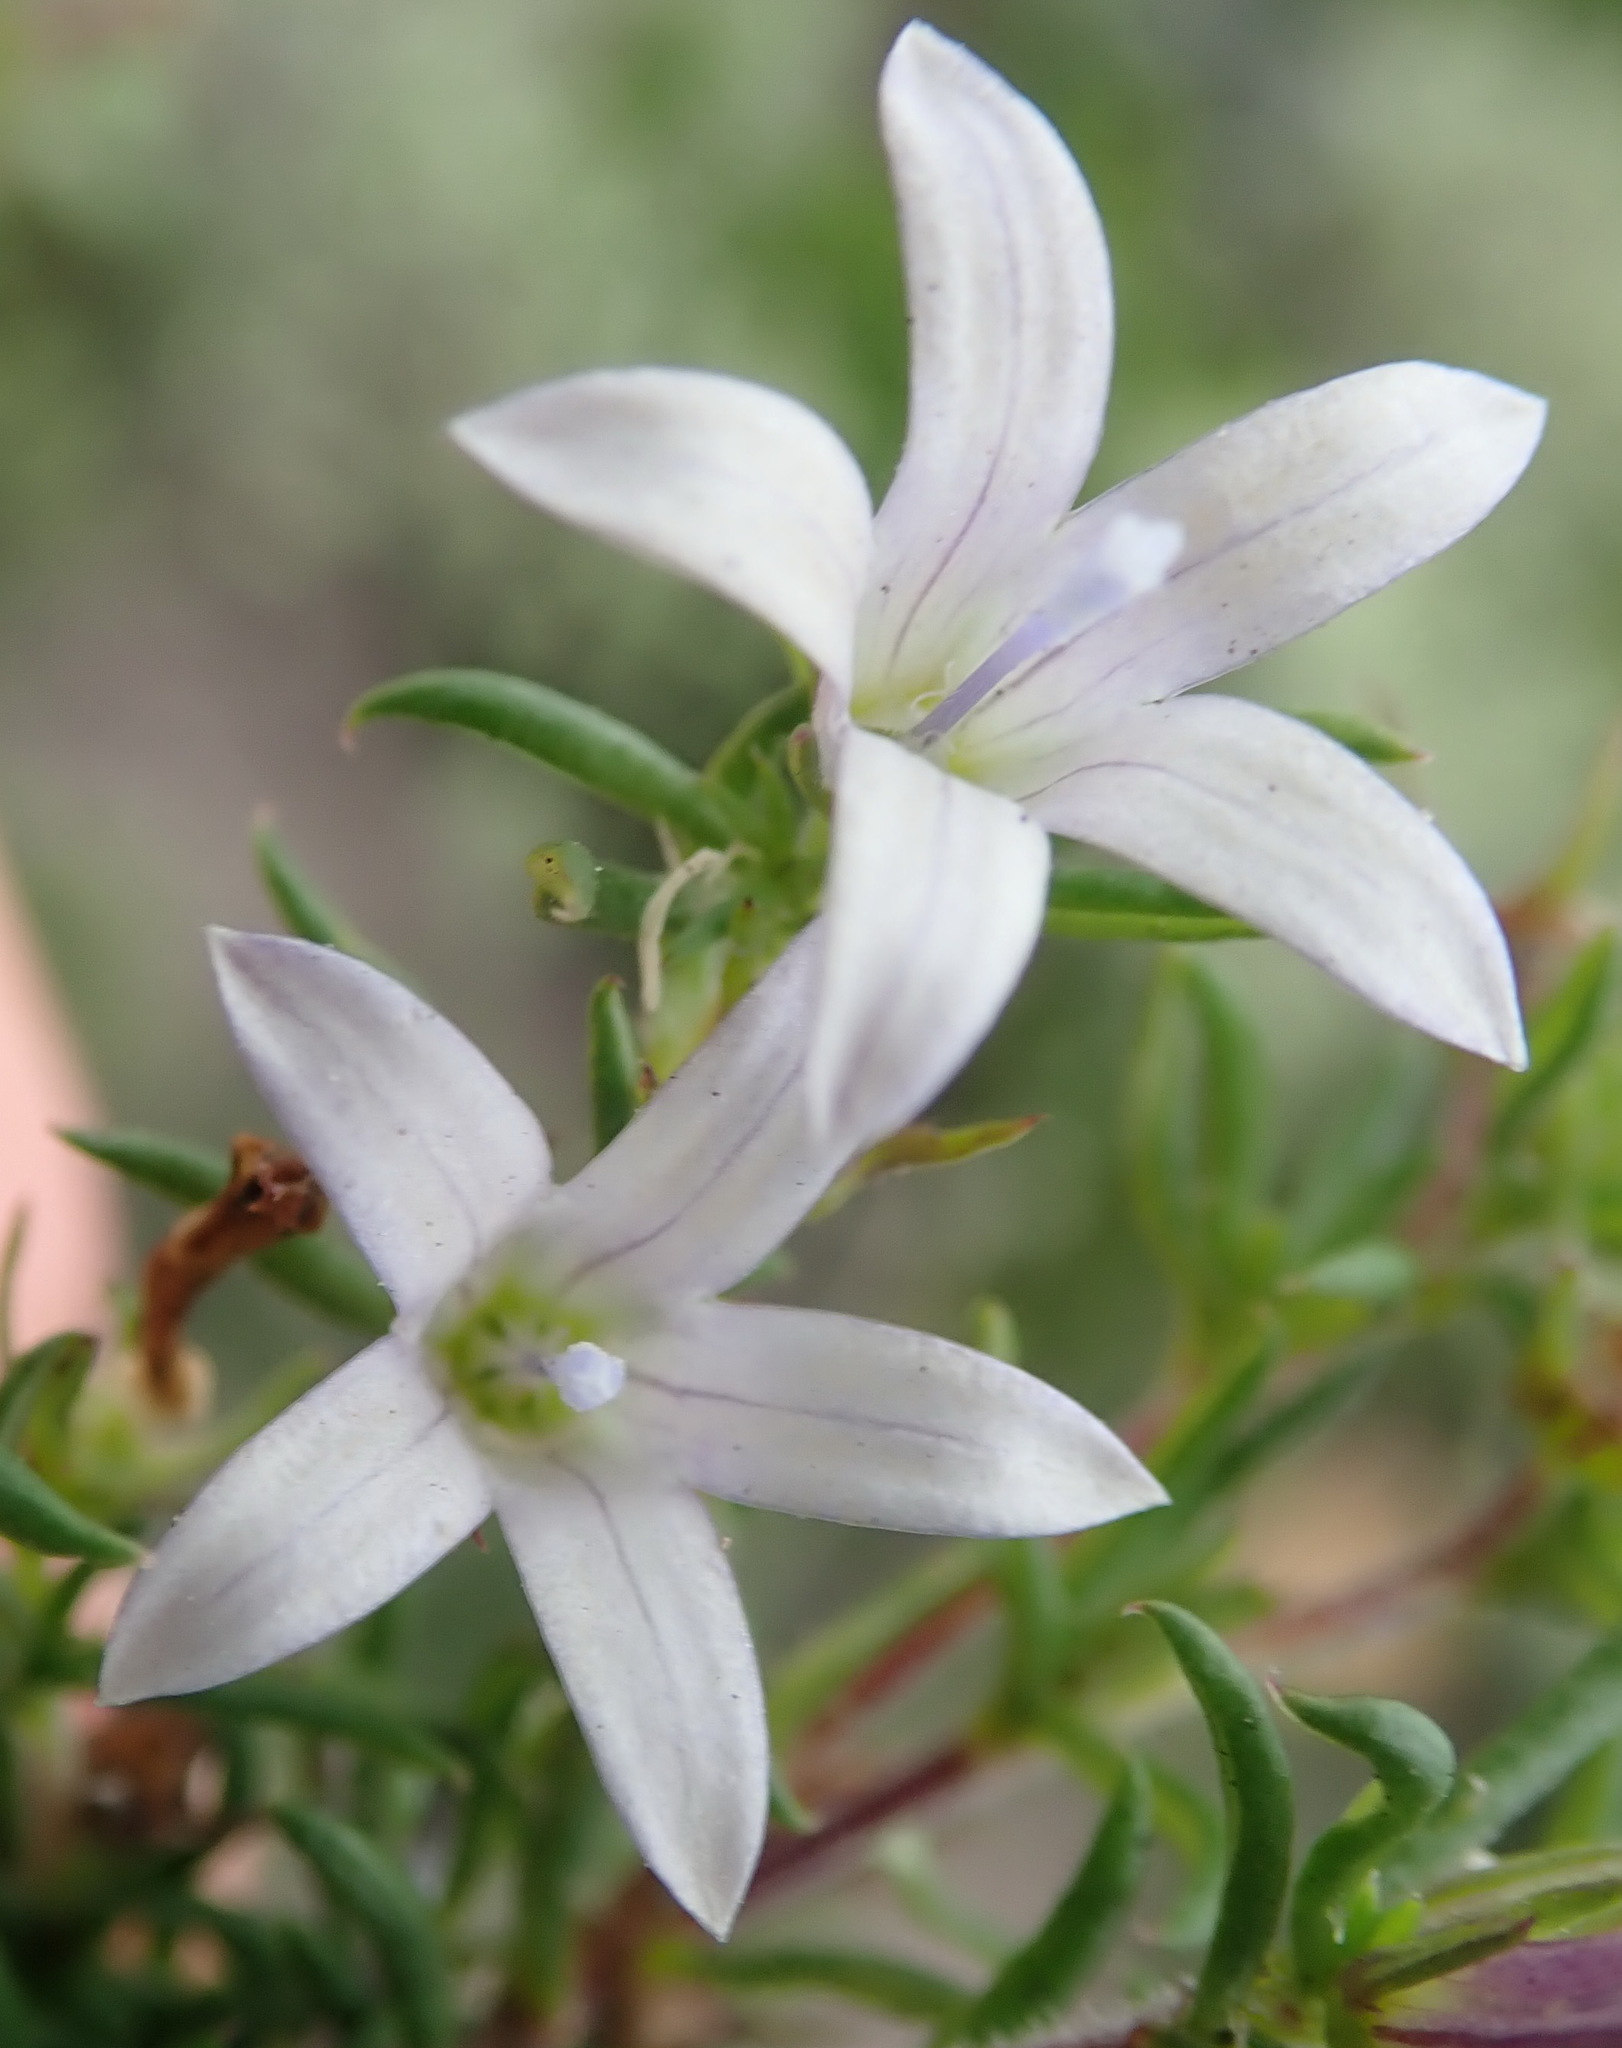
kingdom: Plantae
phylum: Tracheophyta
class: Magnoliopsida
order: Asterales
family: Campanulaceae
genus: Wahlenbergia
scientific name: Wahlenbergia thunbergii
